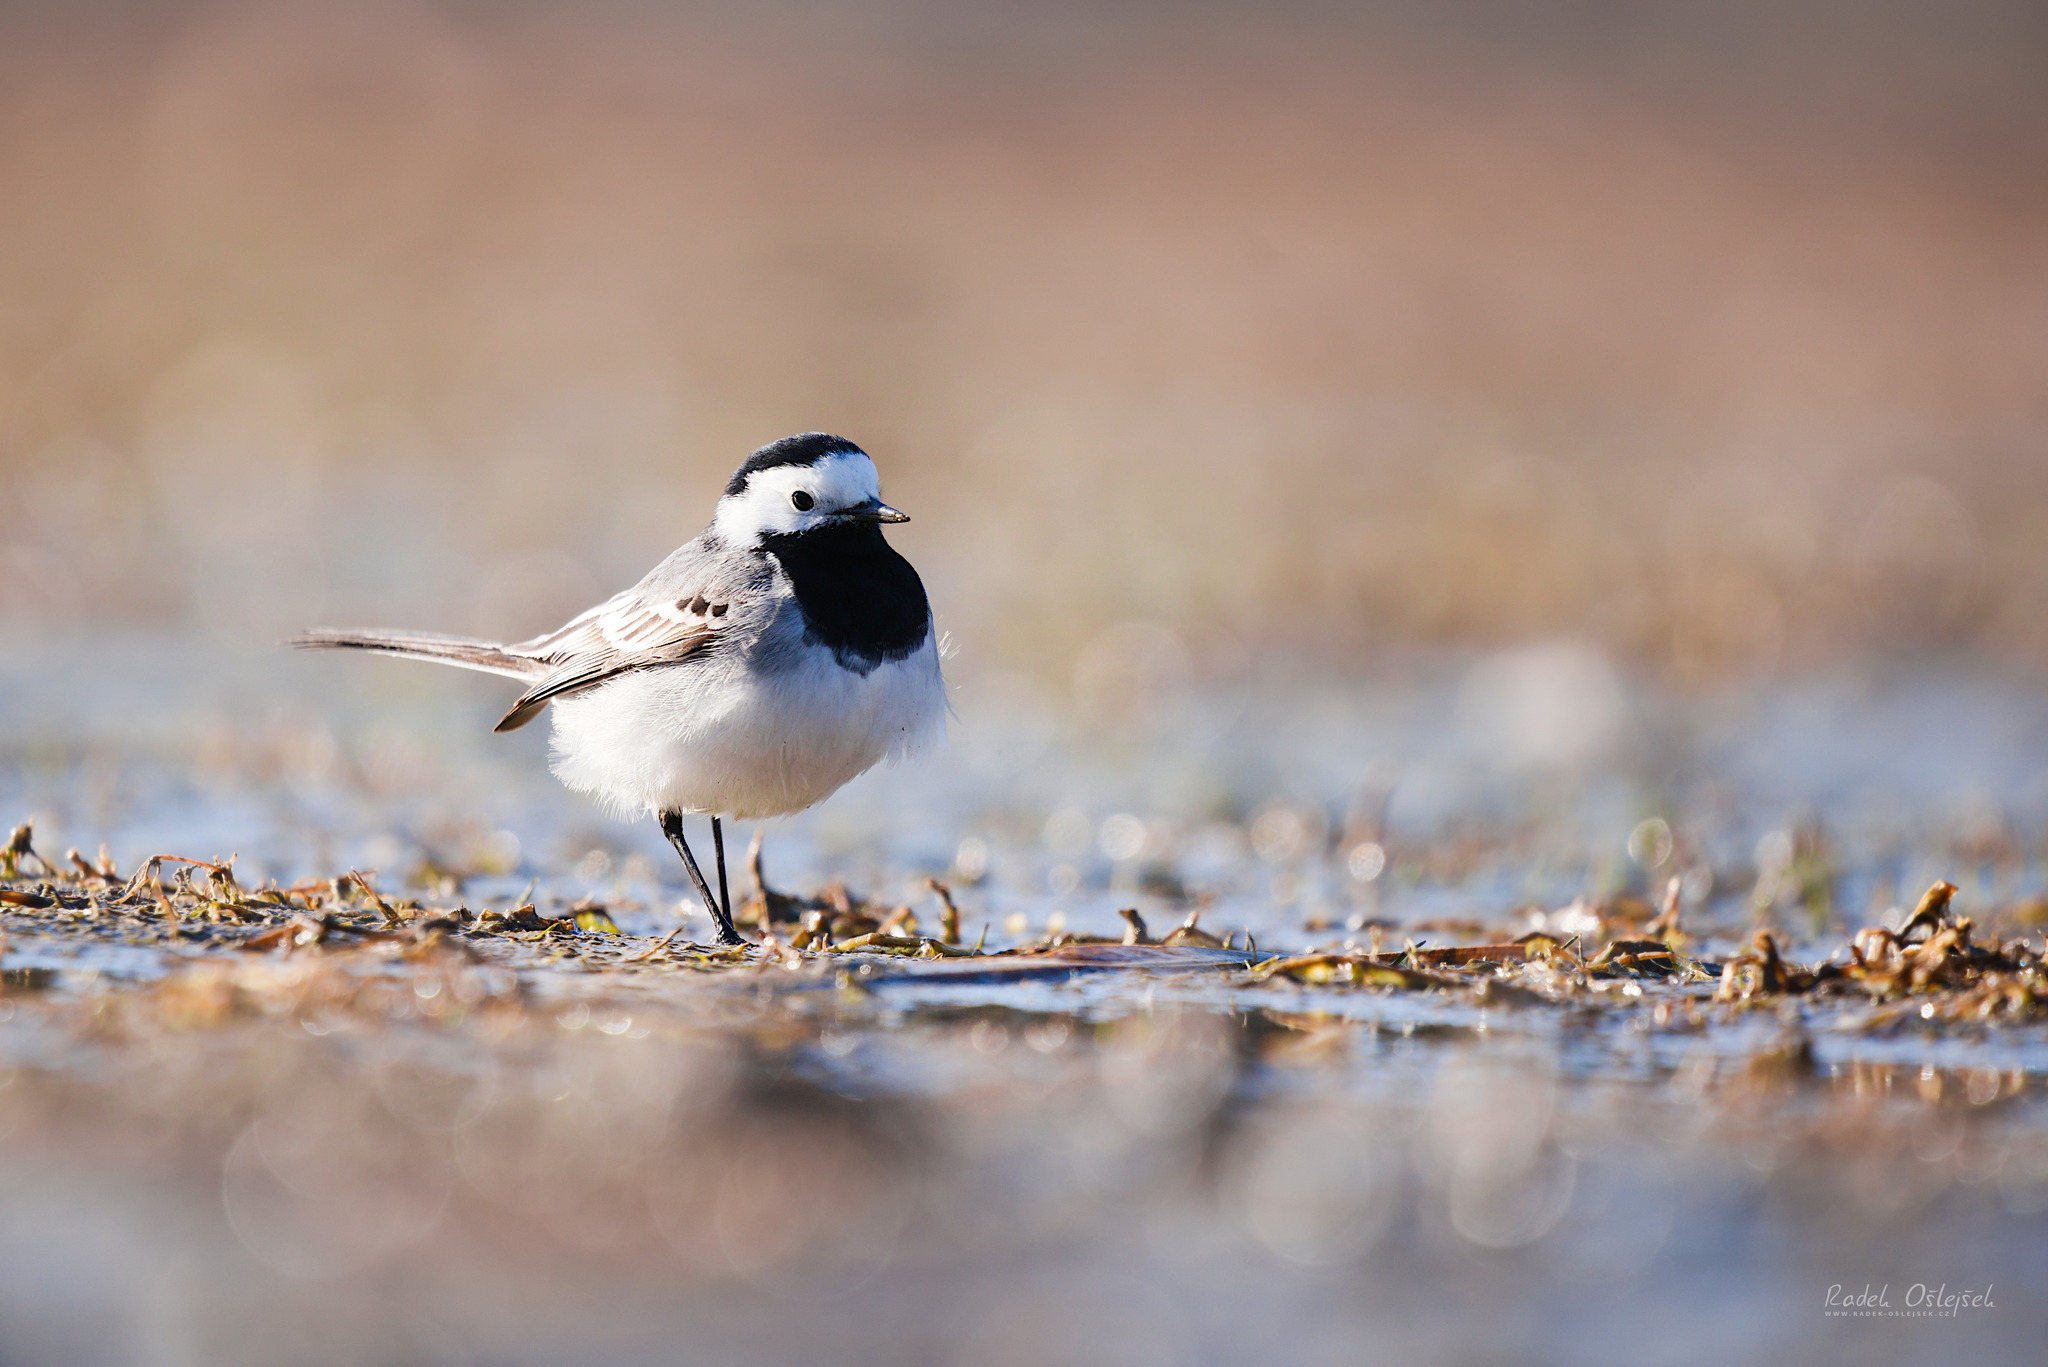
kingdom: Animalia
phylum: Chordata
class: Aves
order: Passeriformes
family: Motacillidae
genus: Motacilla
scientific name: Motacilla alba
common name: White wagtail
